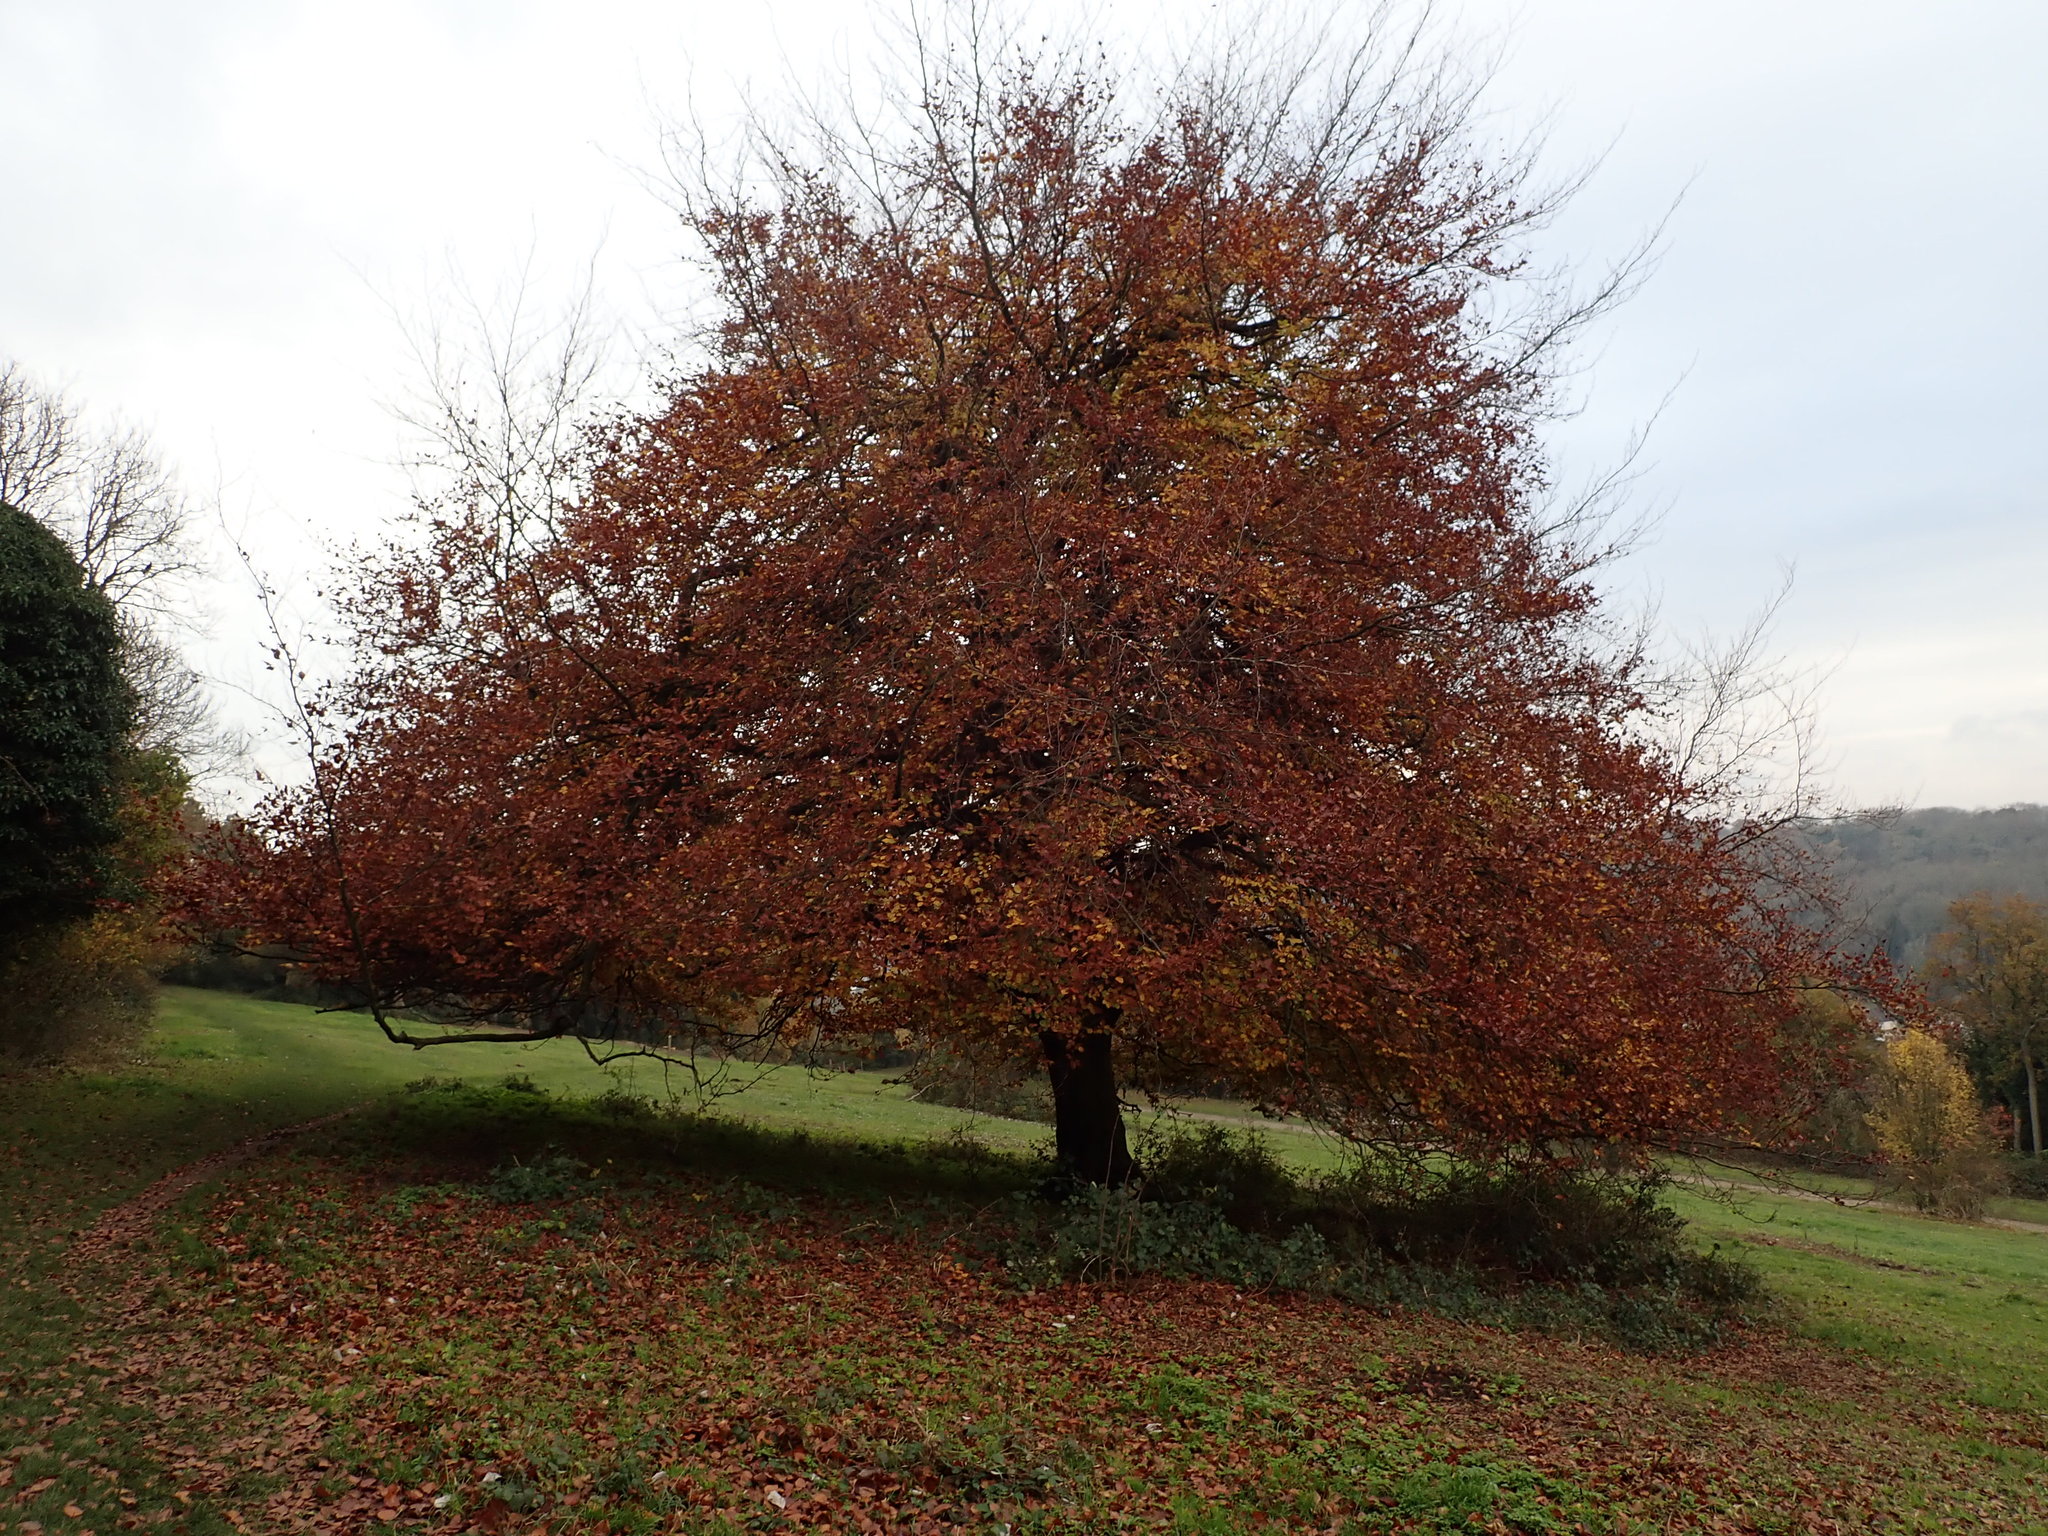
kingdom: Plantae
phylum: Tracheophyta
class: Magnoliopsida
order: Fagales
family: Fagaceae
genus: Fagus
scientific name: Fagus sylvatica
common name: Beech
